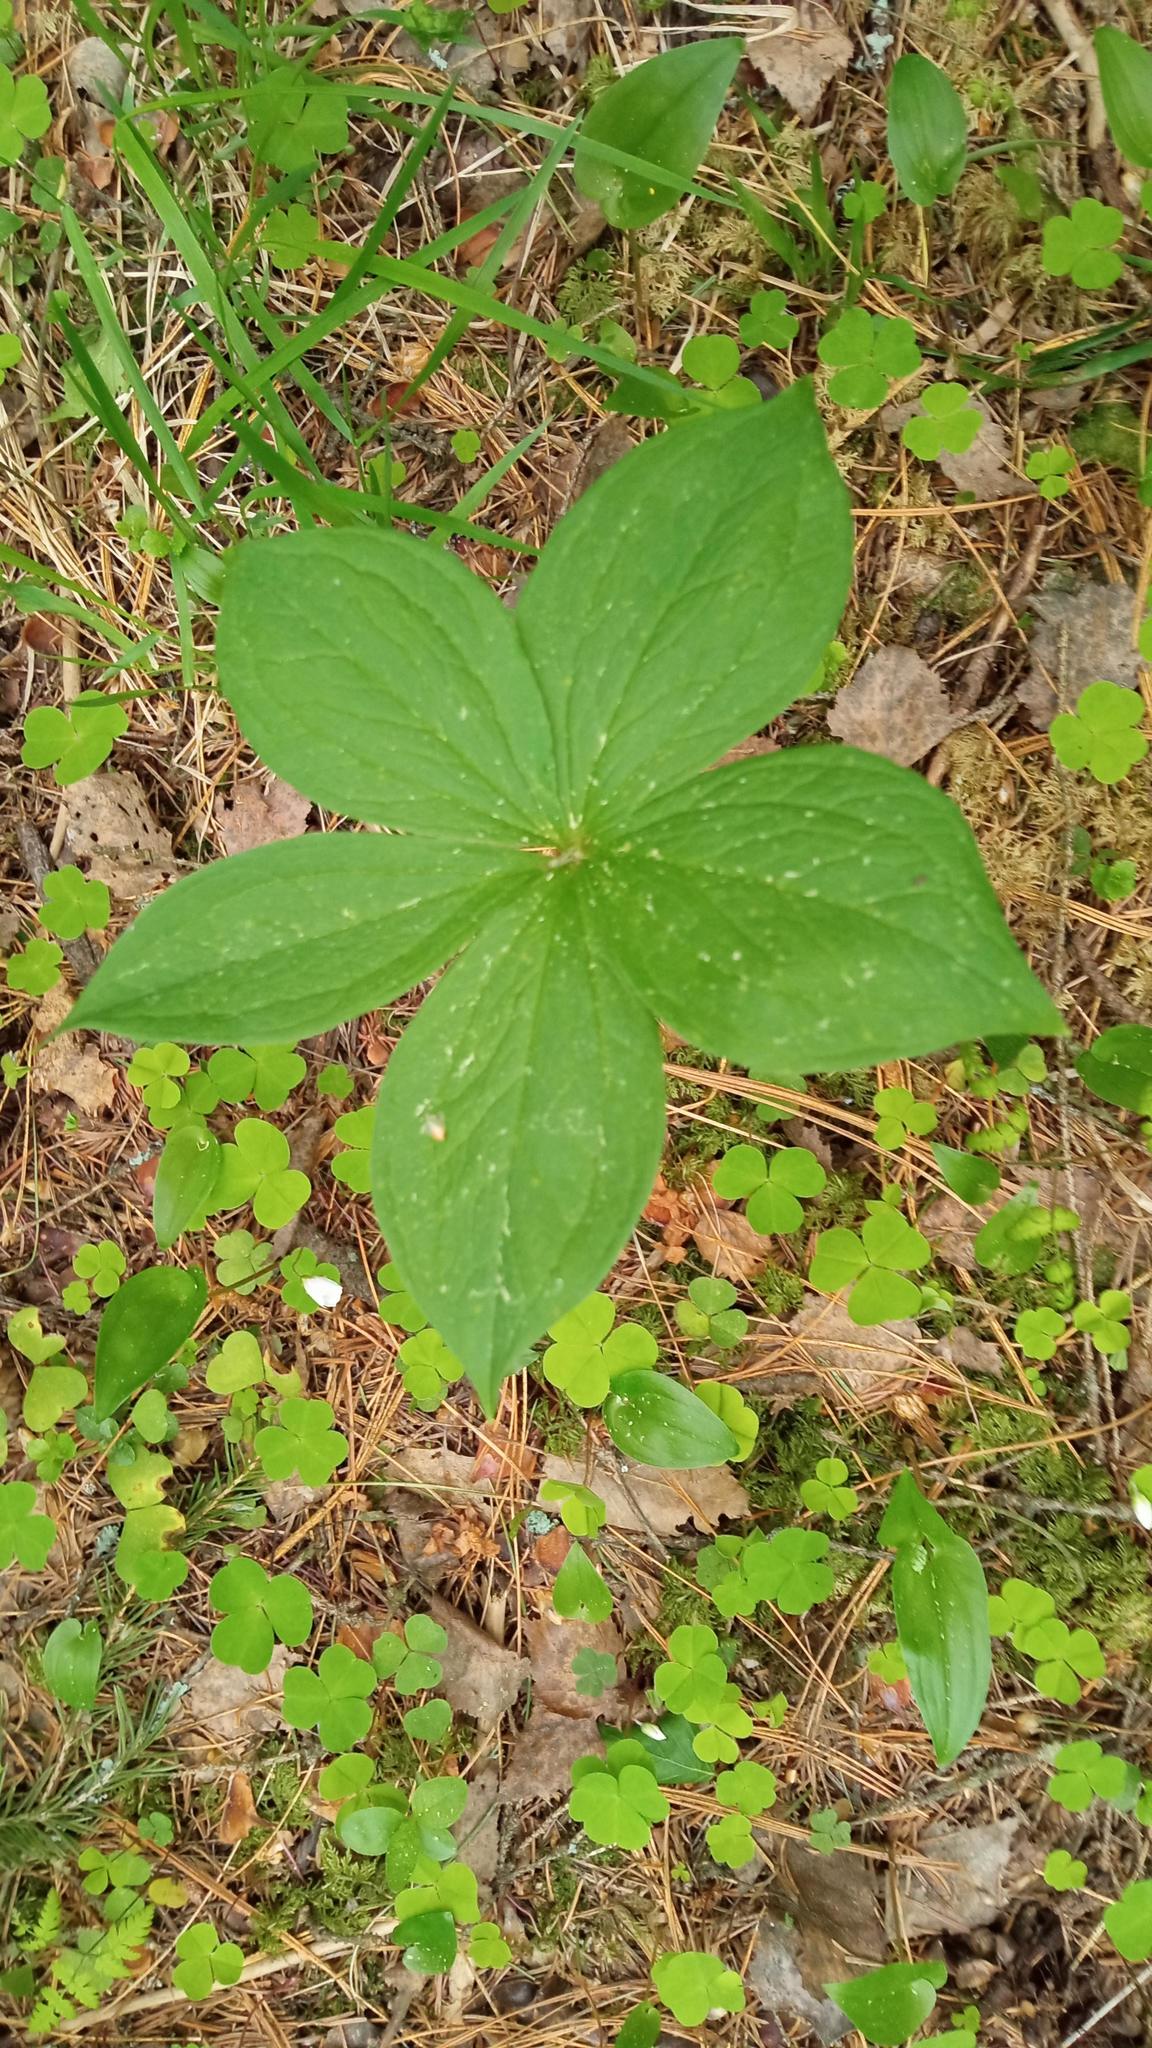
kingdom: Plantae
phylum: Tracheophyta
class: Liliopsida
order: Liliales
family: Melanthiaceae
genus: Paris
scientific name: Paris verticillata
